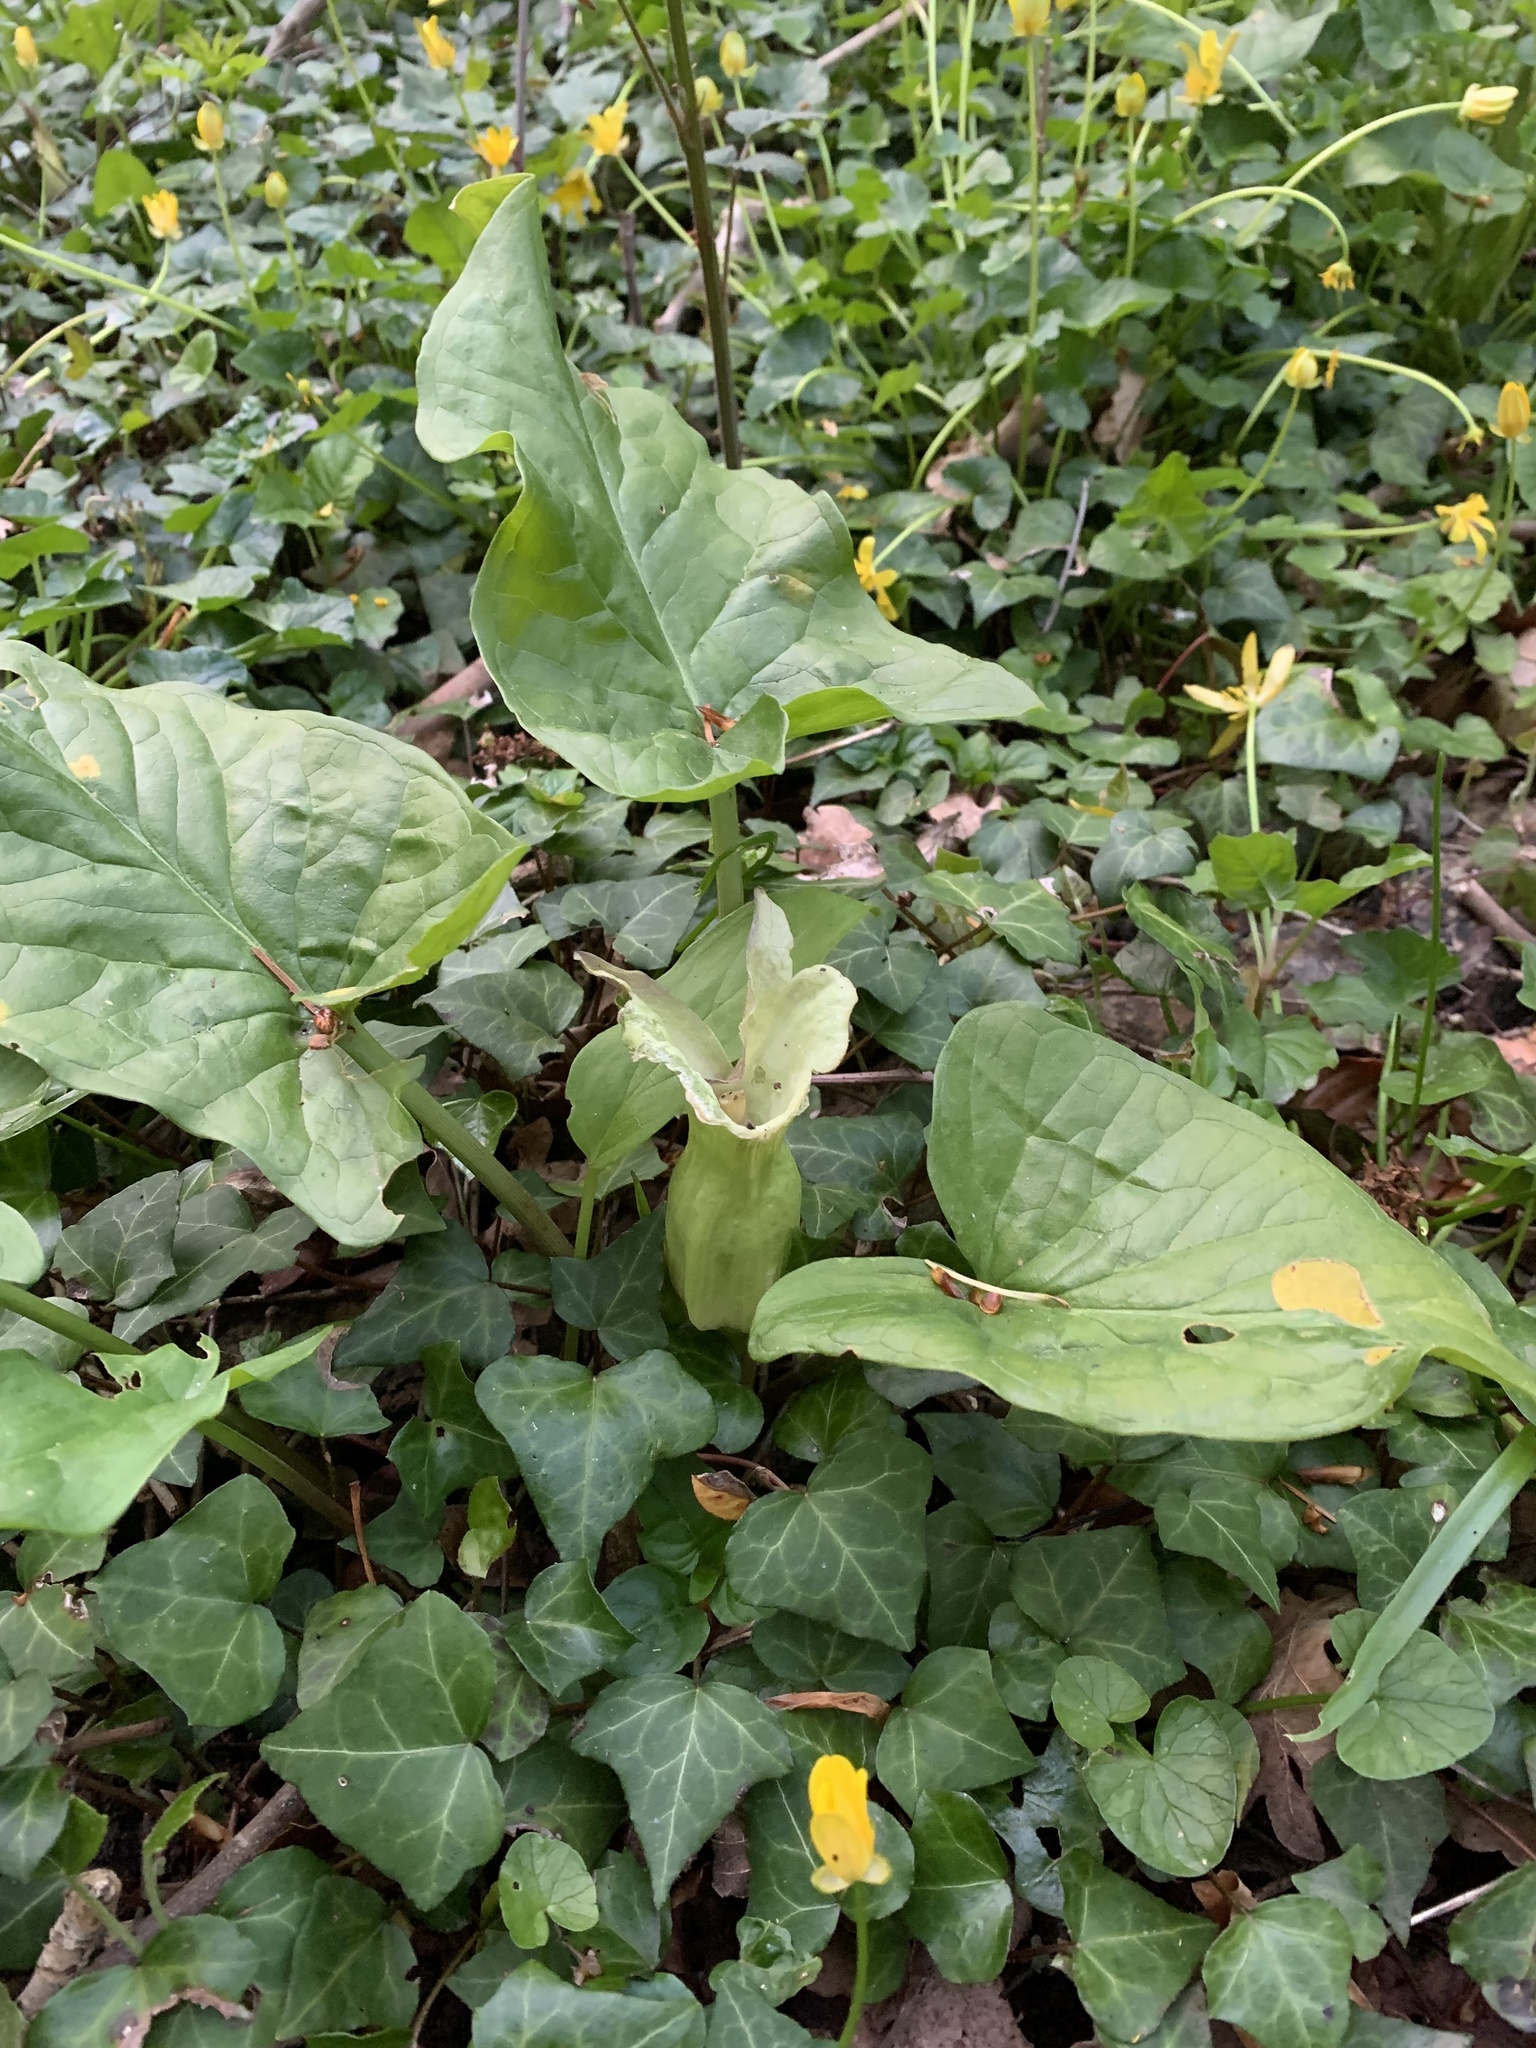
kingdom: Plantae
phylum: Tracheophyta
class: Liliopsida
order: Alismatales
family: Araceae
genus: Arum
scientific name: Arum maculatum
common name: Lords-and-ladies
